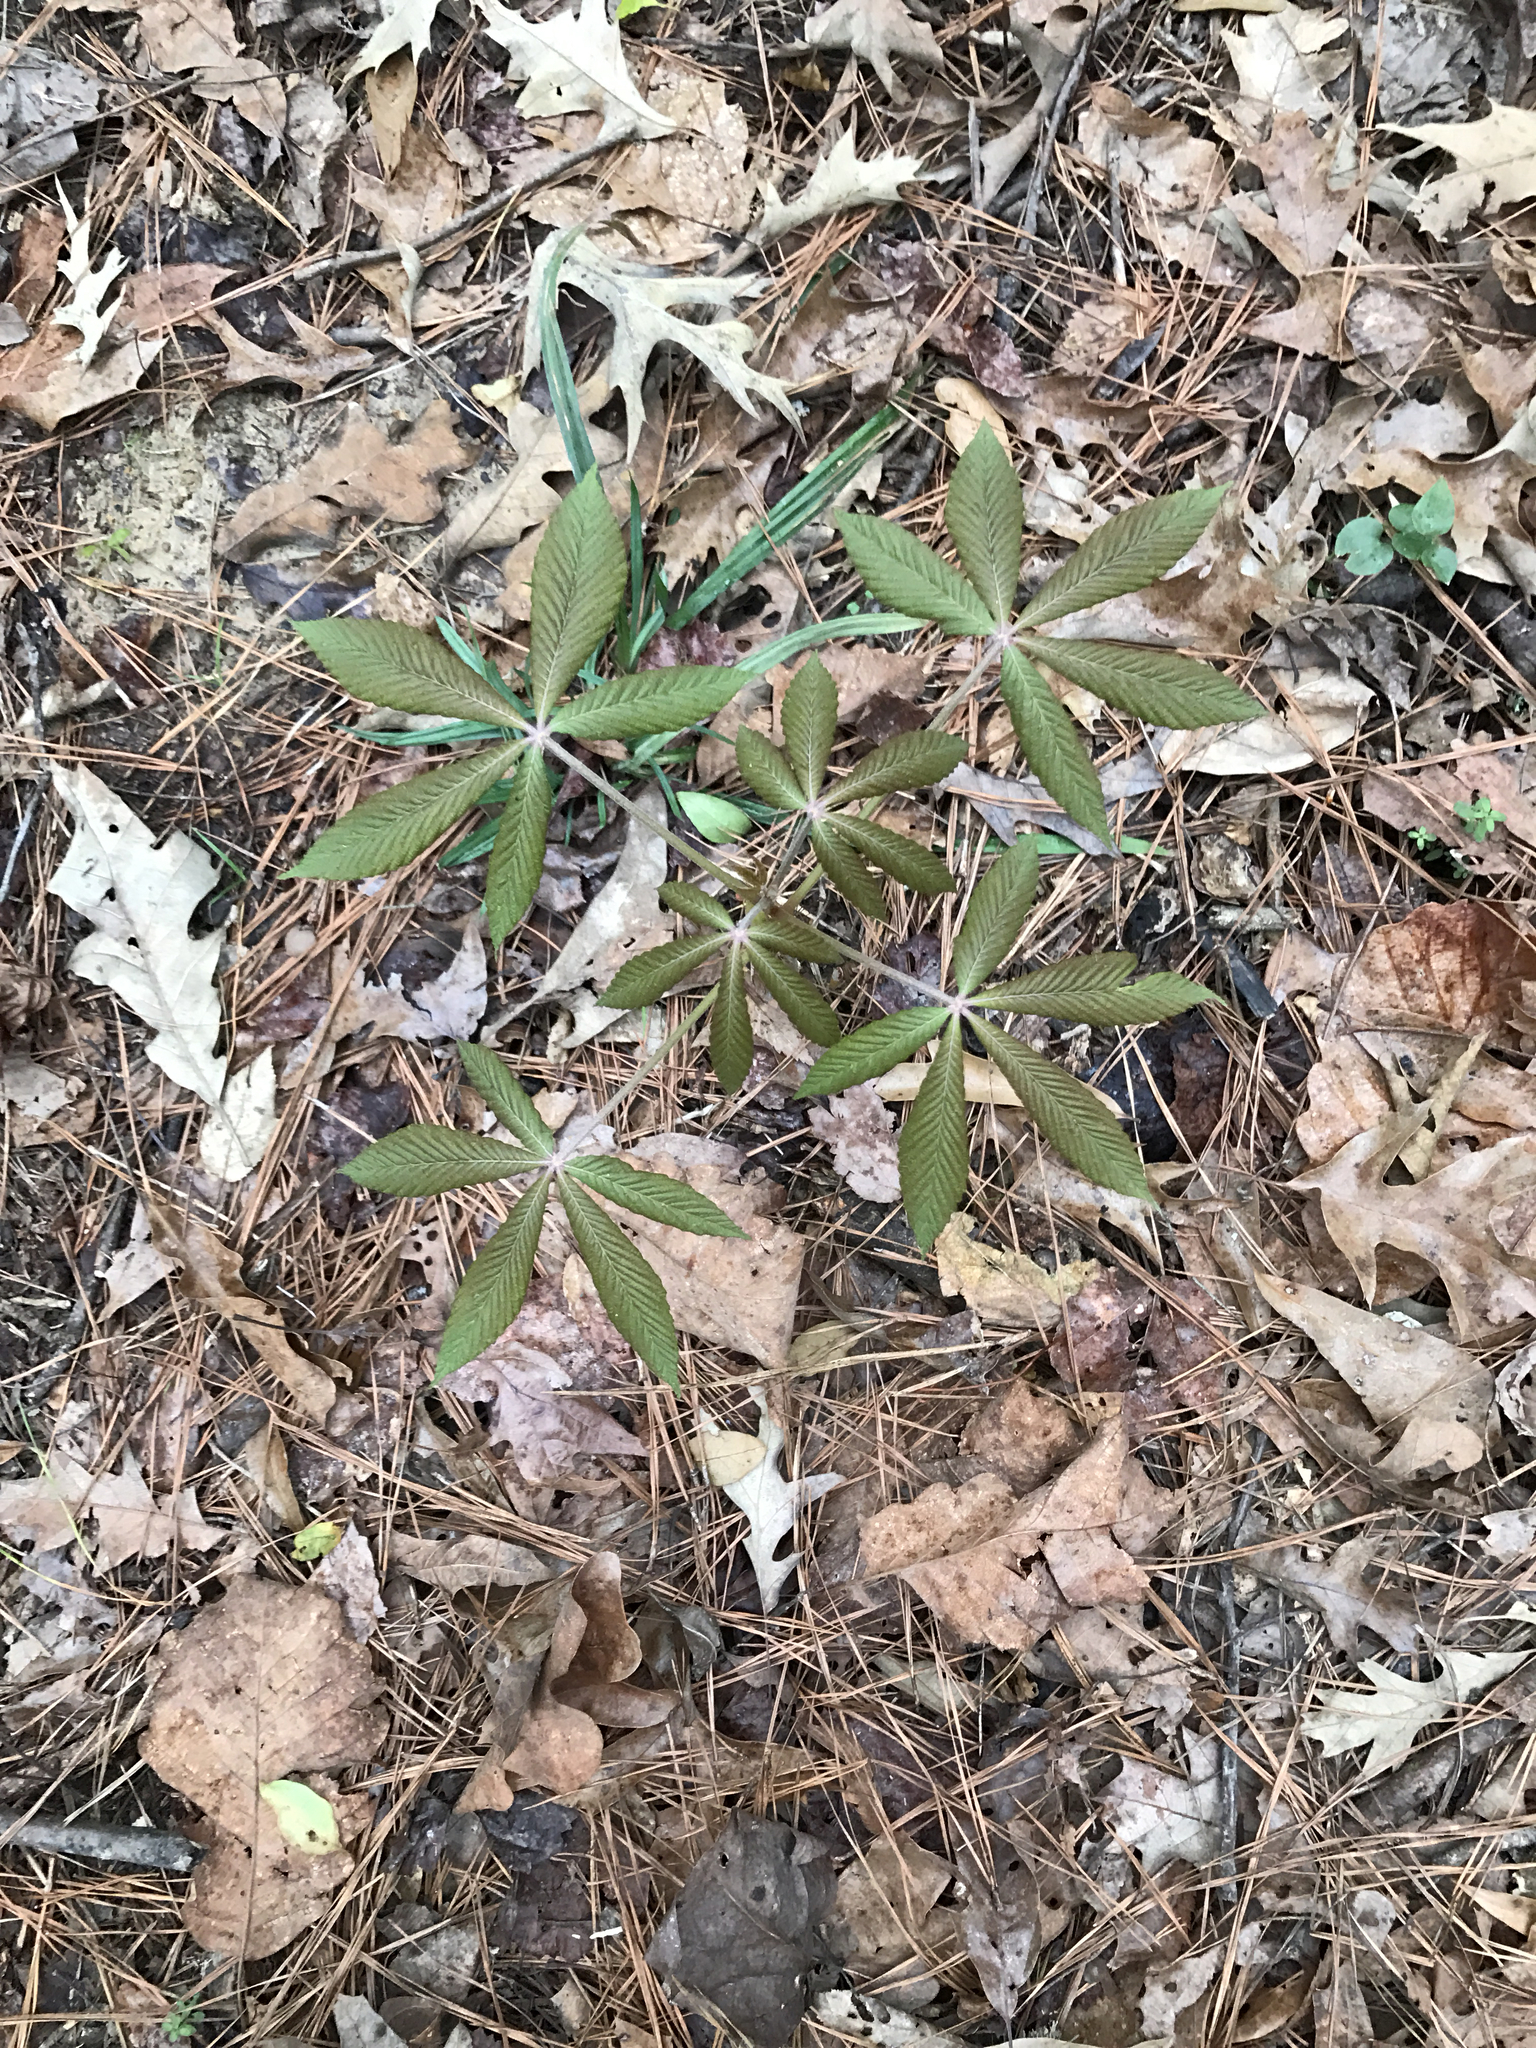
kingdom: Plantae
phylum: Tracheophyta
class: Magnoliopsida
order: Sapindales
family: Sapindaceae
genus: Aesculus
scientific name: Aesculus pavia
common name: Red buckeye
